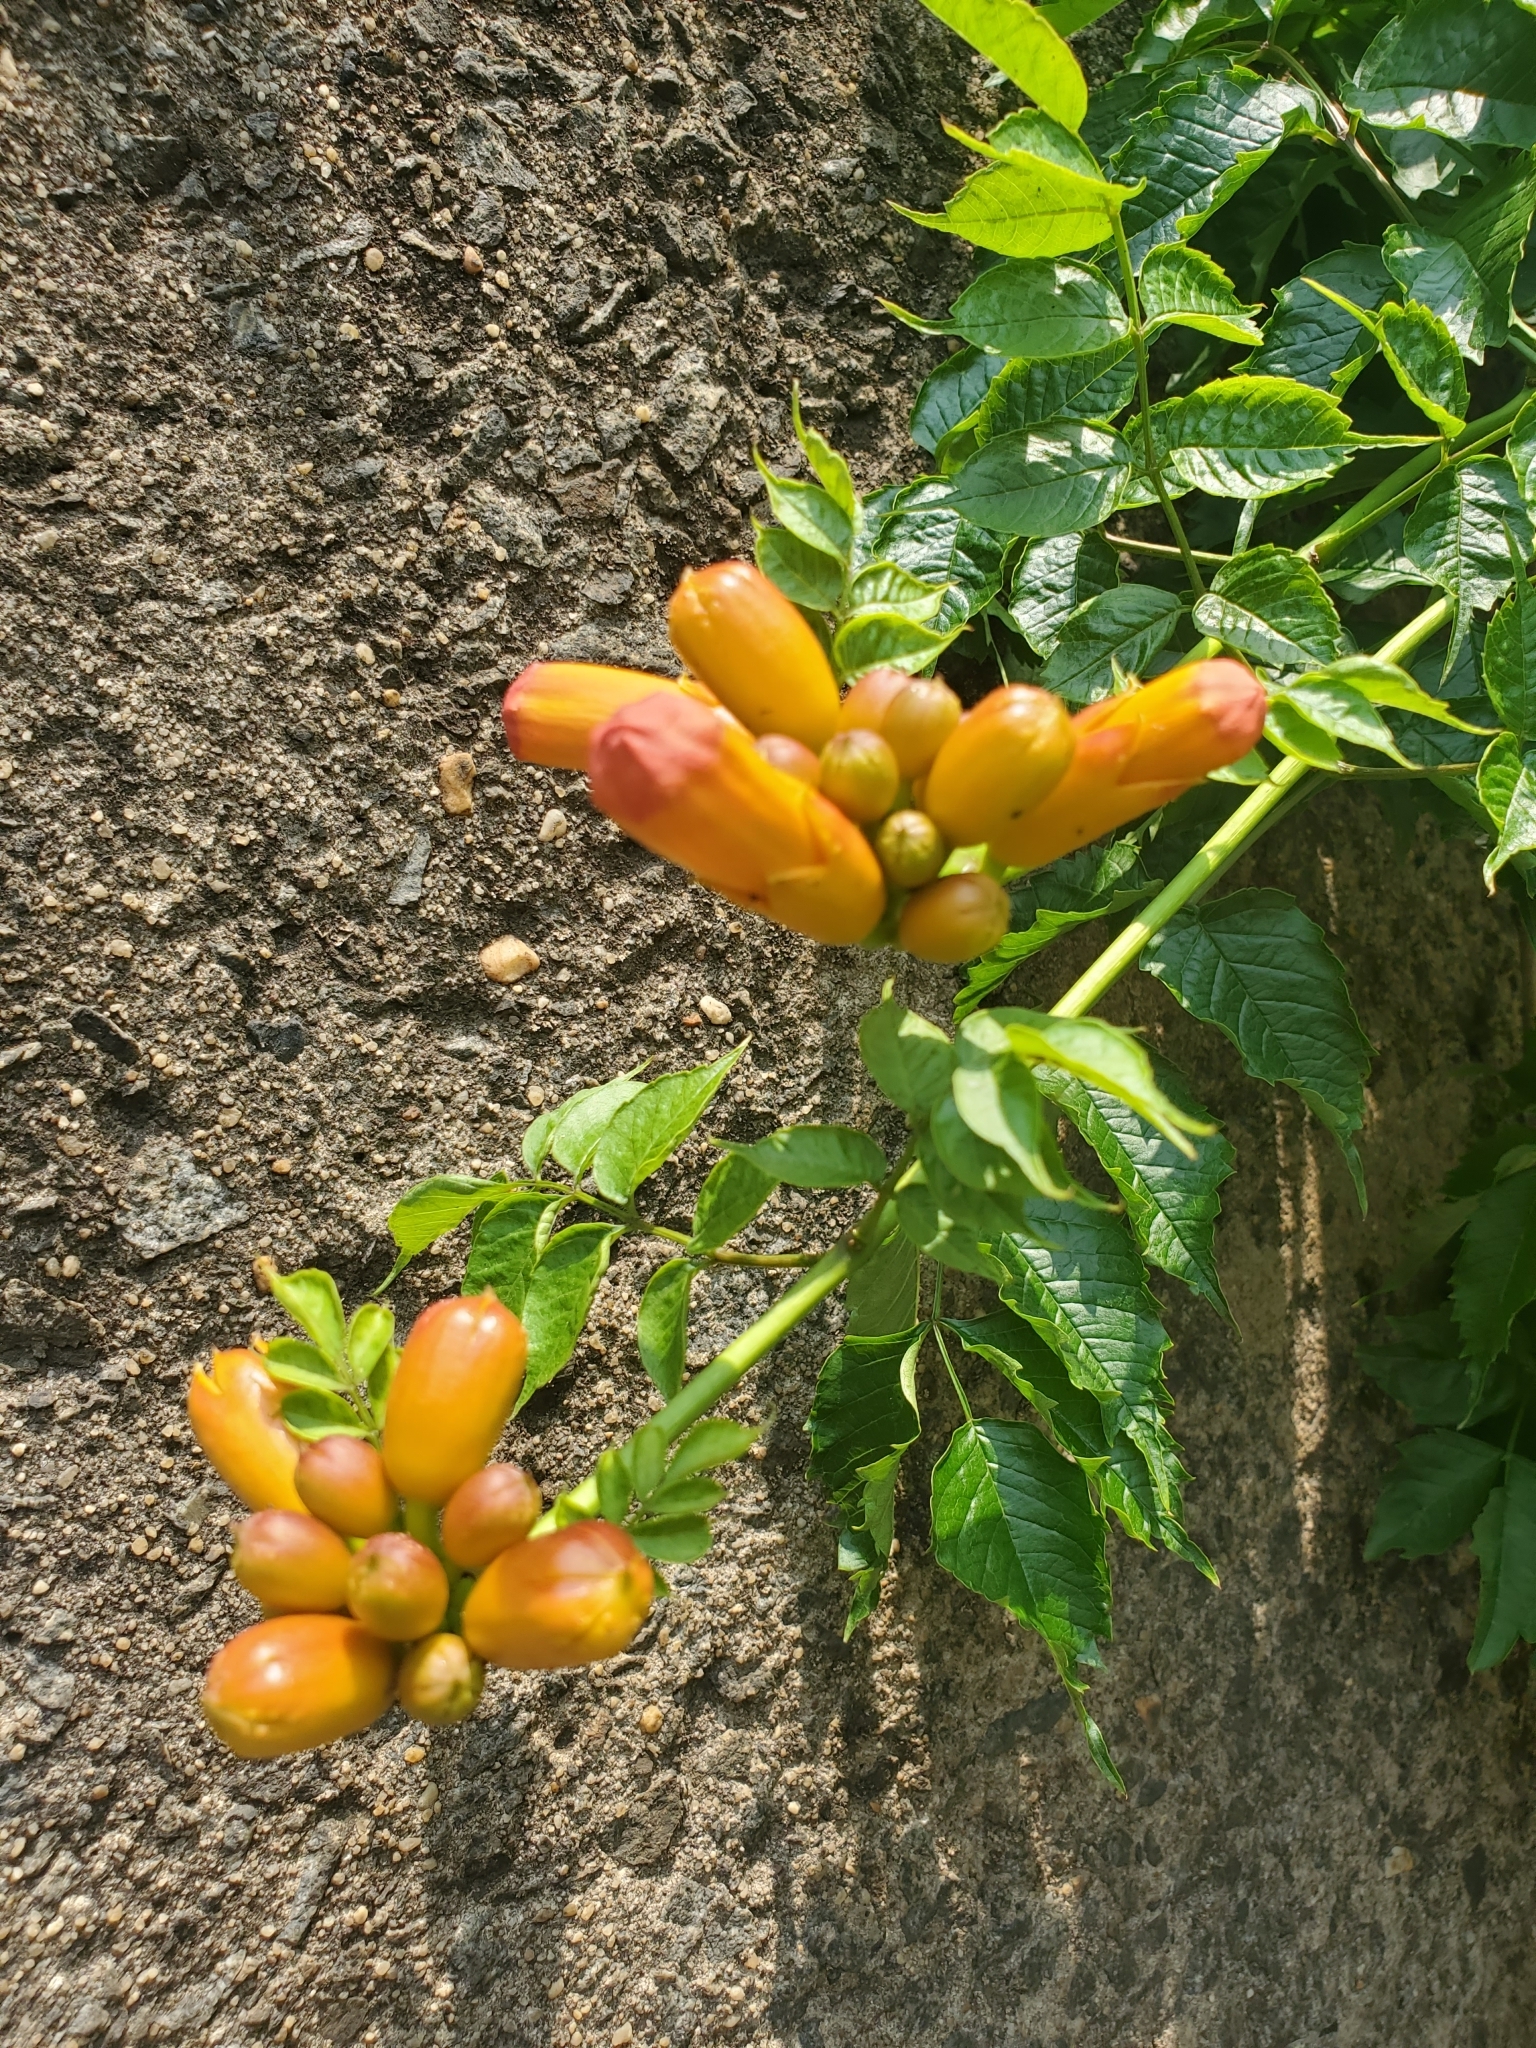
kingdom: Plantae
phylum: Tracheophyta
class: Magnoliopsida
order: Lamiales
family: Bignoniaceae
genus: Campsis
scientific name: Campsis radicans
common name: Trumpet-creeper
